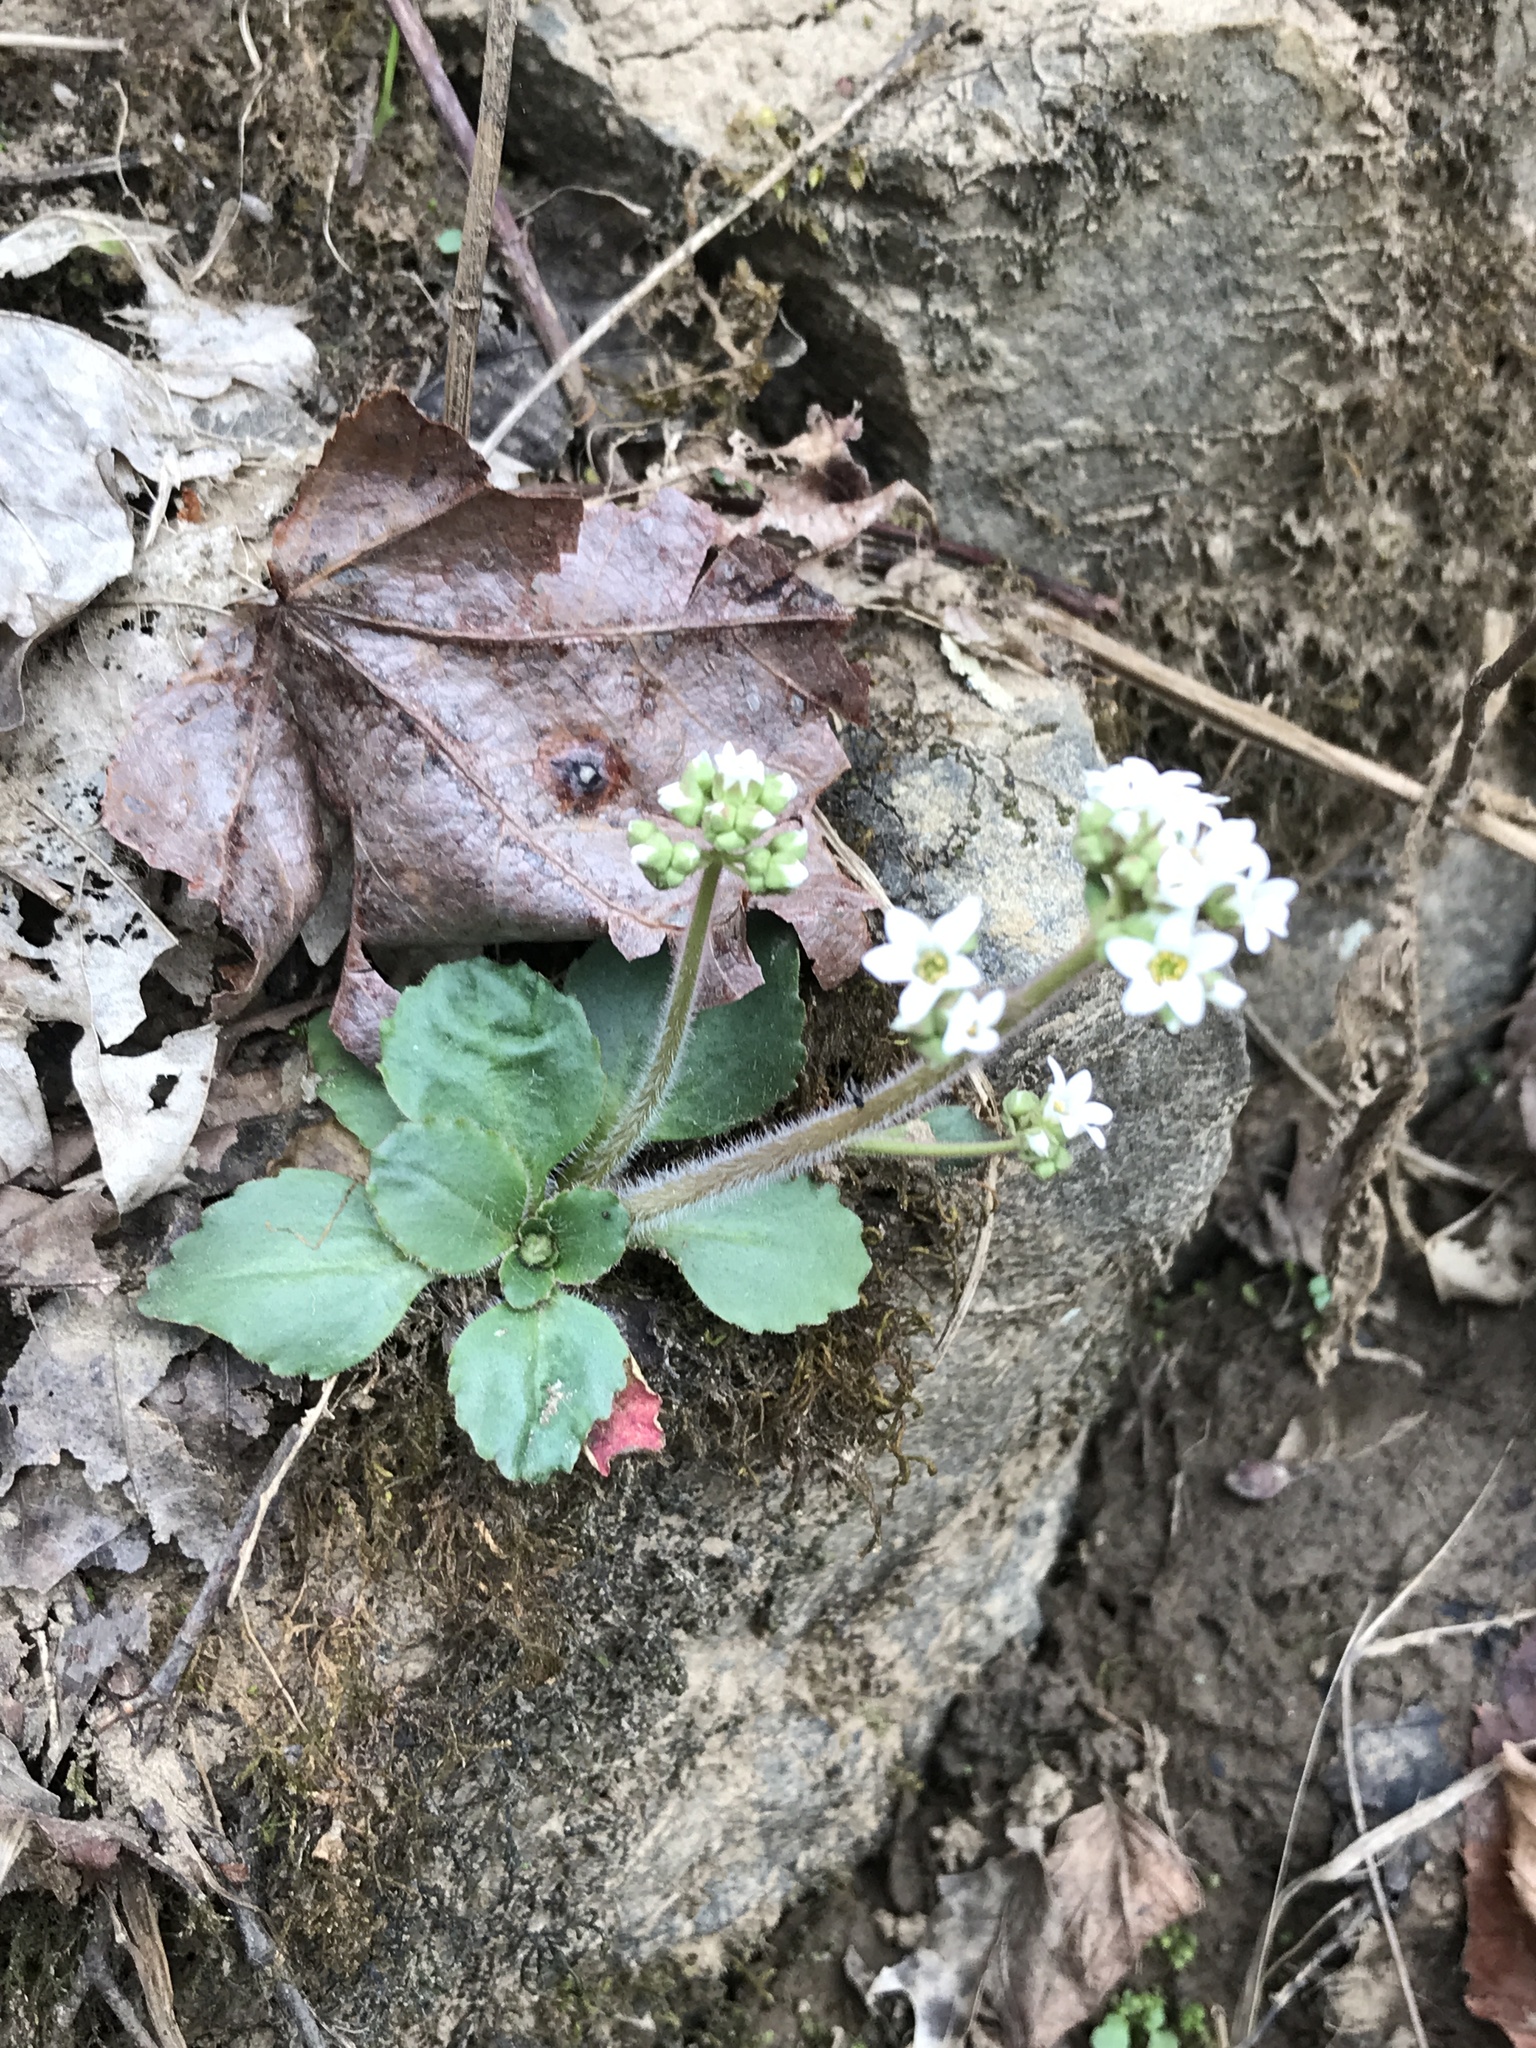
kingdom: Plantae
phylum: Tracheophyta
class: Magnoliopsida
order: Saxifragales
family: Saxifragaceae
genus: Micranthes
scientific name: Micranthes virginiensis
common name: Early saxifrage
